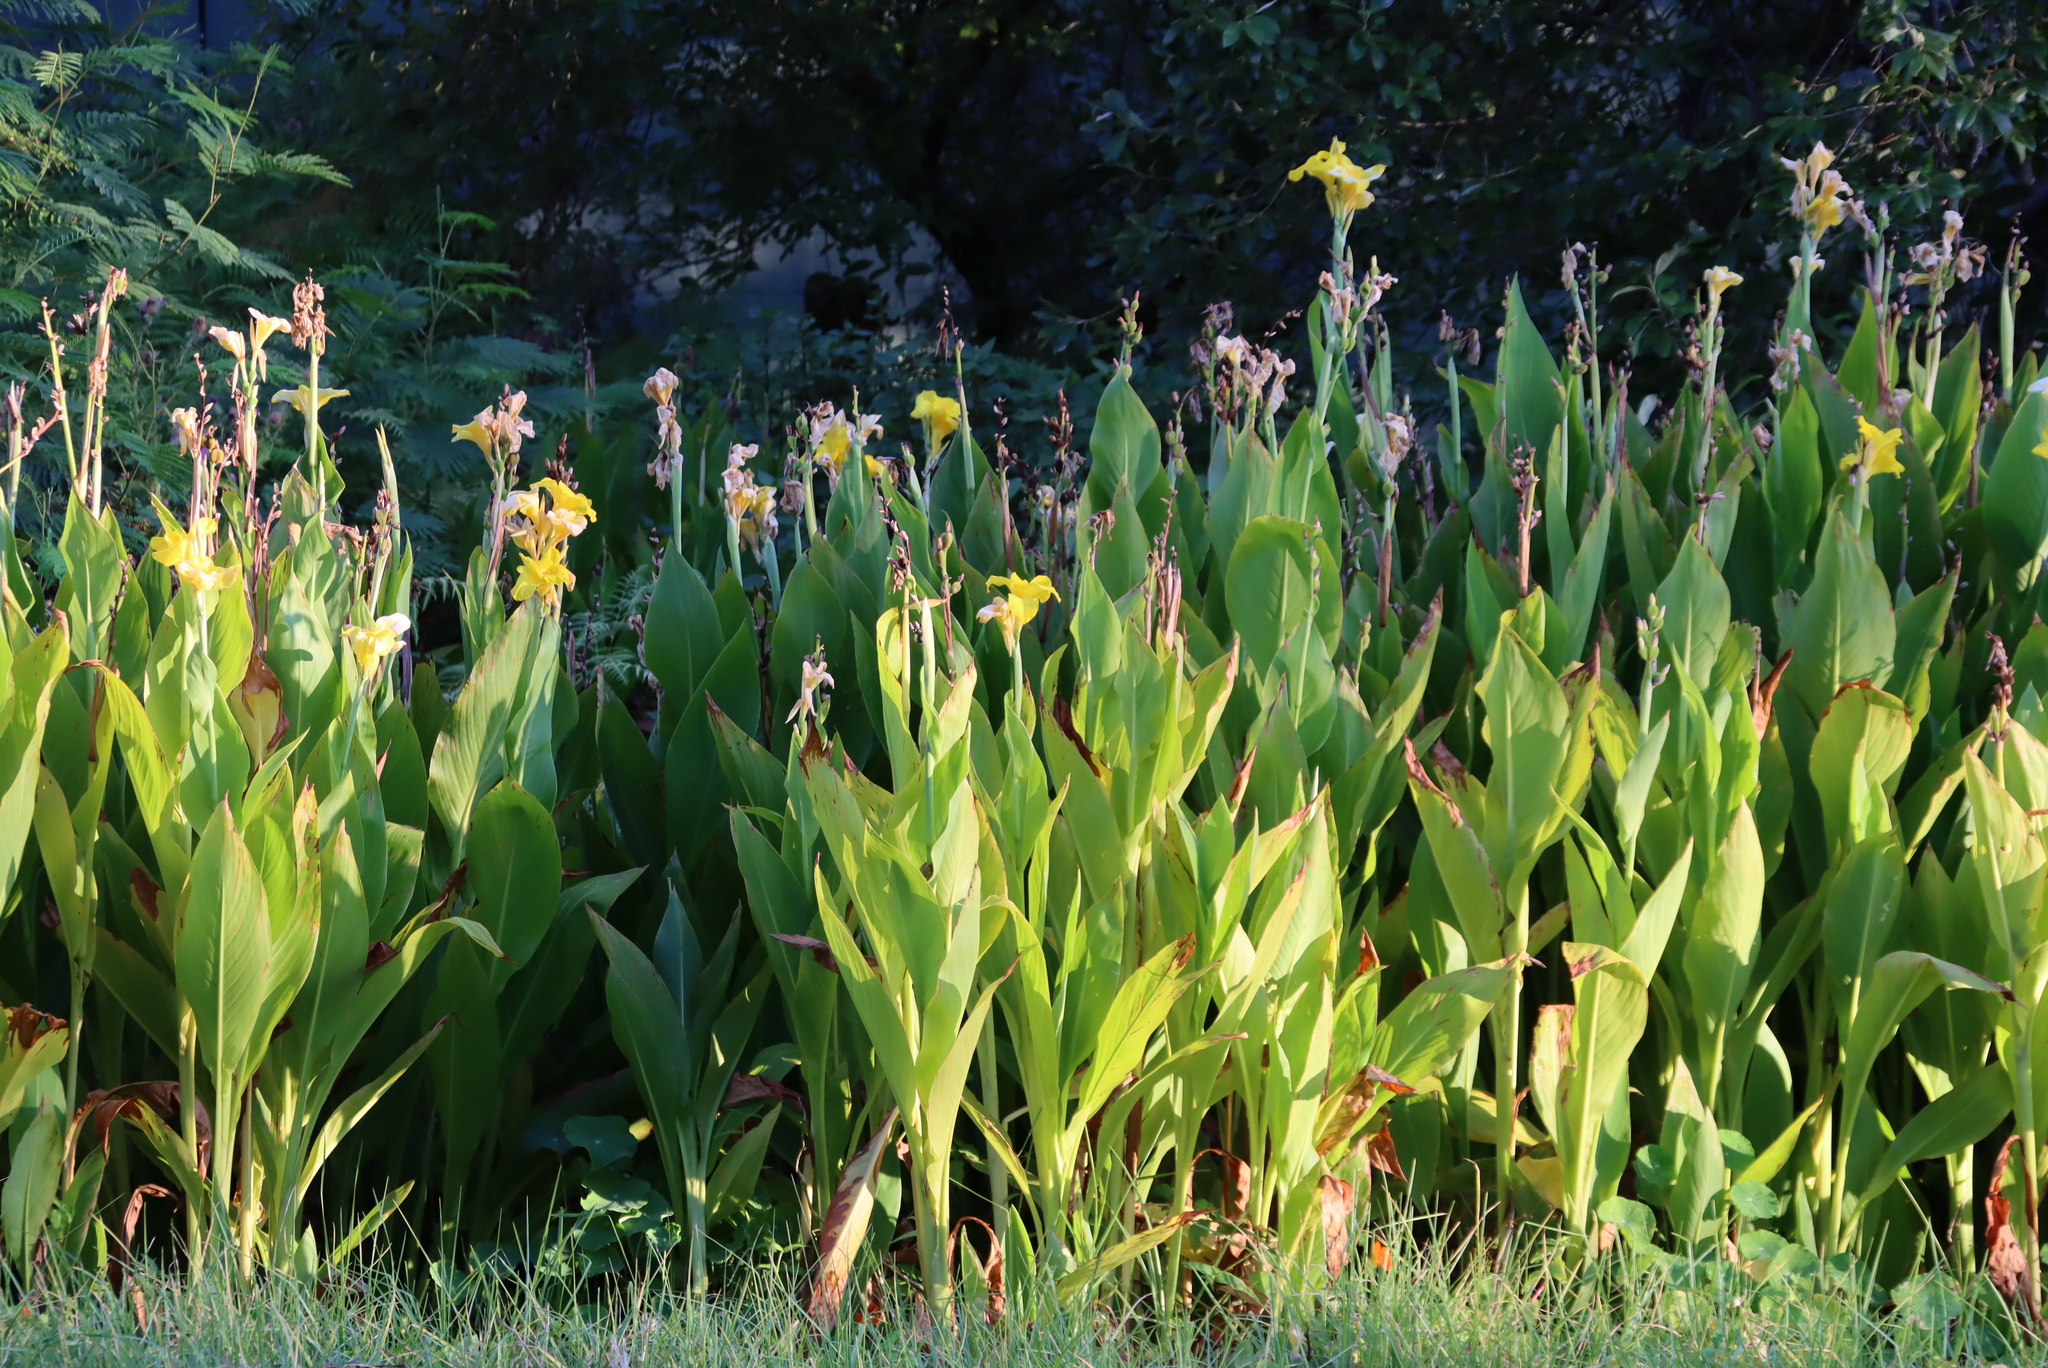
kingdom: Plantae
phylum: Tracheophyta
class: Liliopsida
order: Zingiberales
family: Cannaceae
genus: Canna
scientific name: Canna indica
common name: Indian shot
